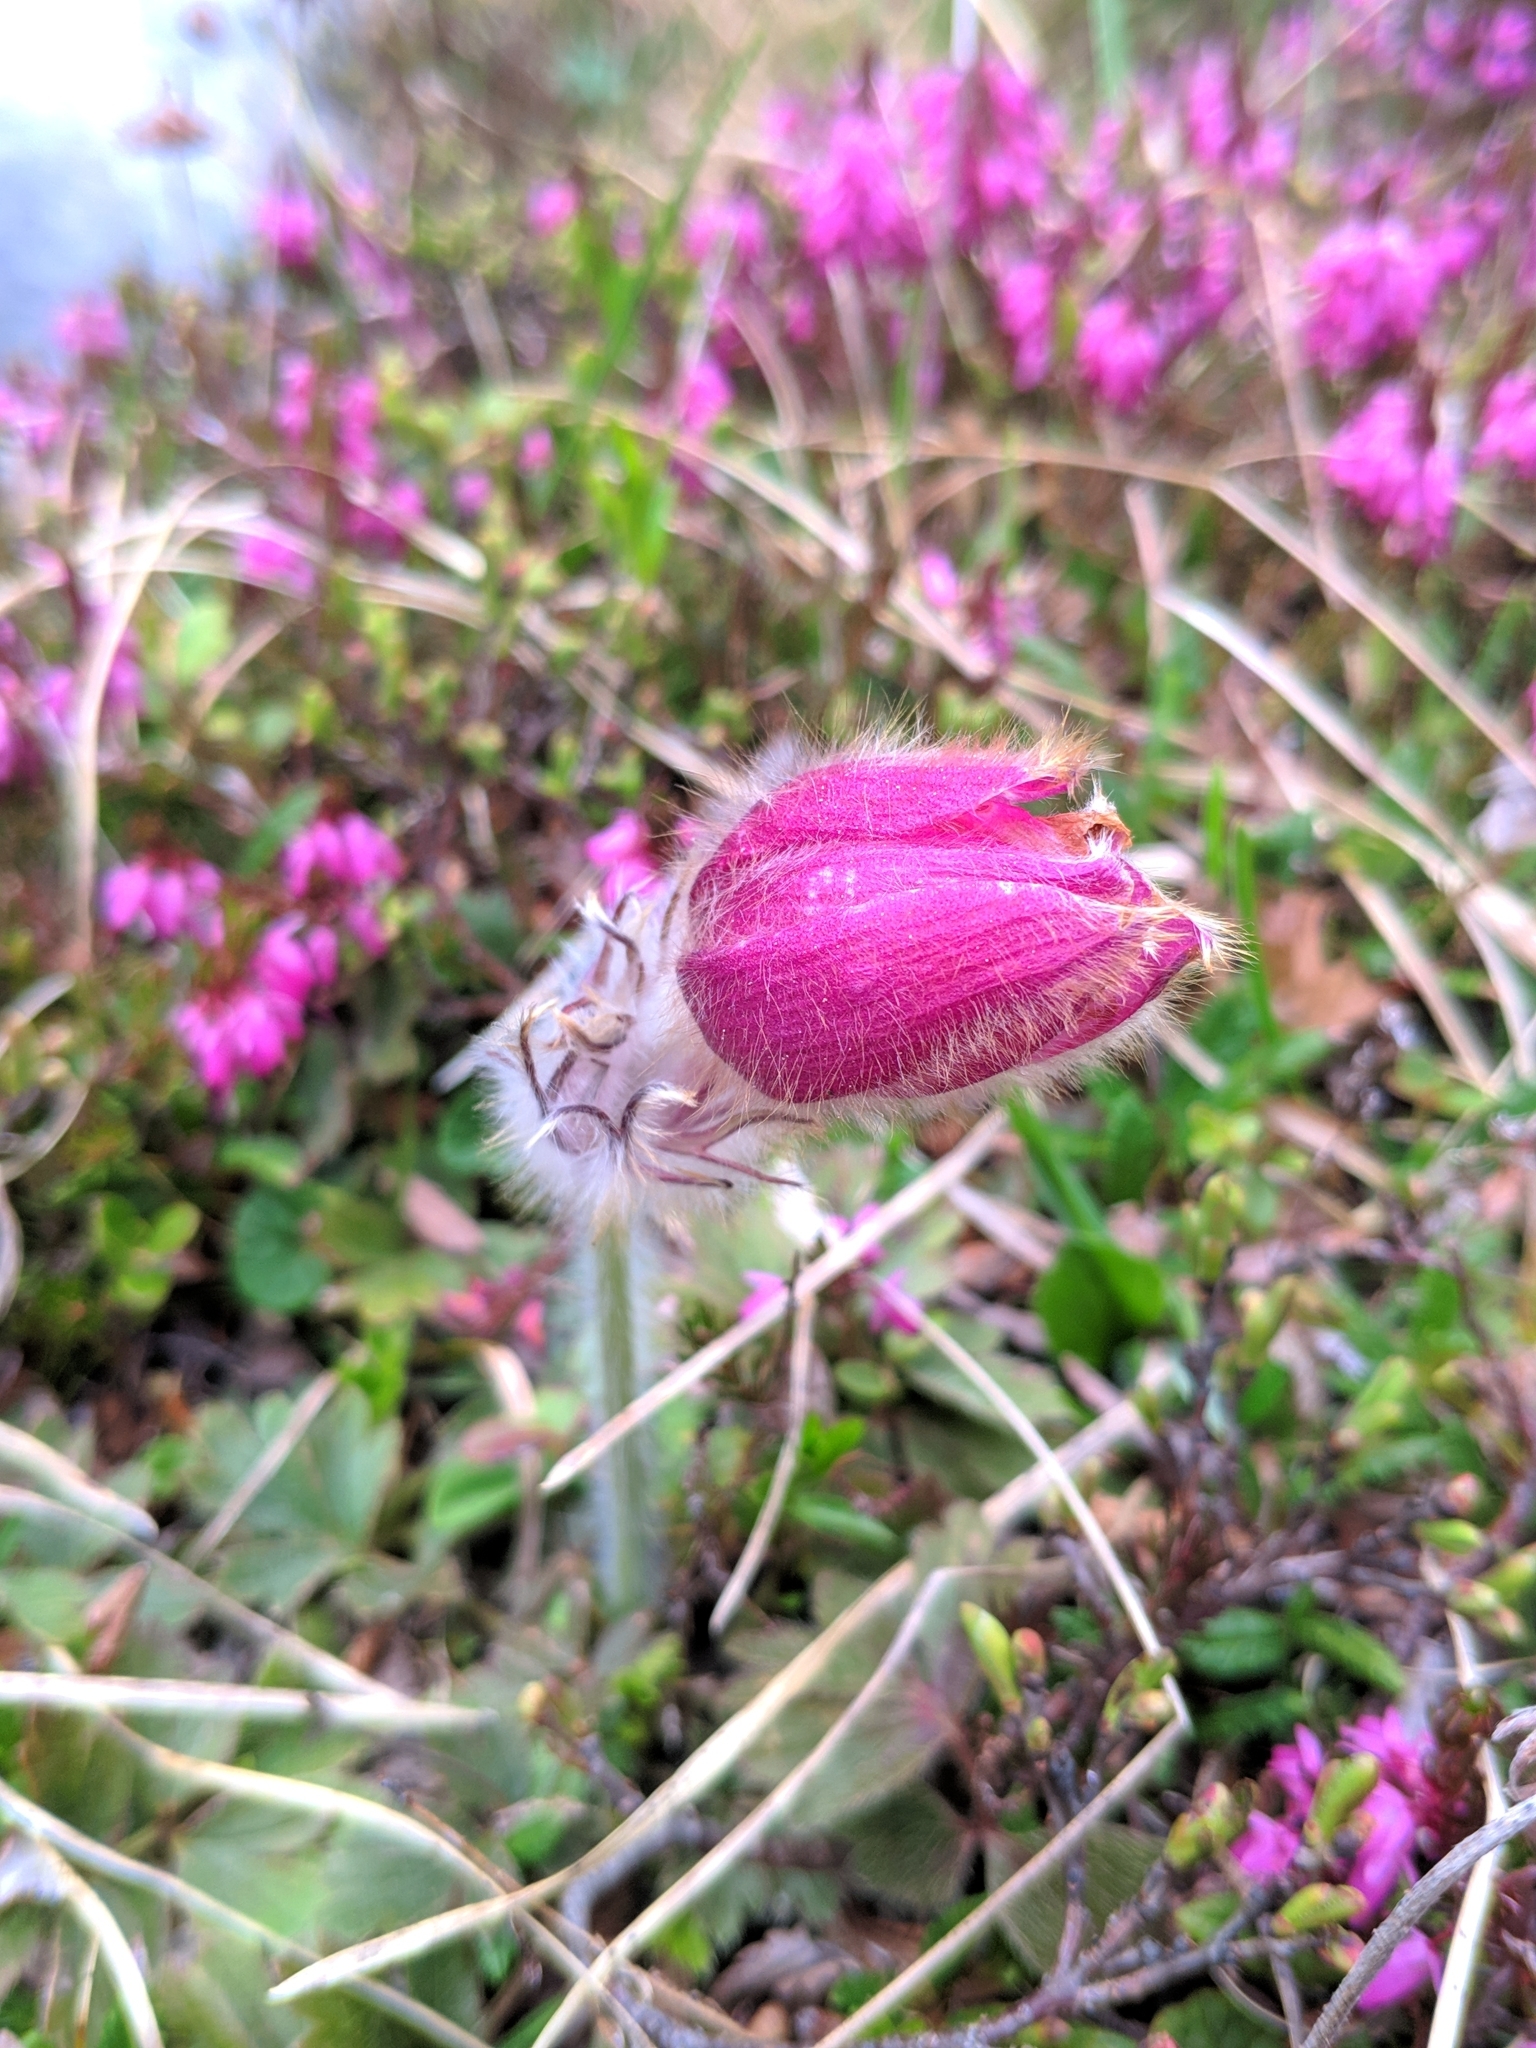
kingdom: Plantae
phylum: Tracheophyta
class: Magnoliopsida
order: Ranunculales
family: Ranunculaceae
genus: Pulsatilla
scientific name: Pulsatilla vernalis
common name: Spring pasque flower
